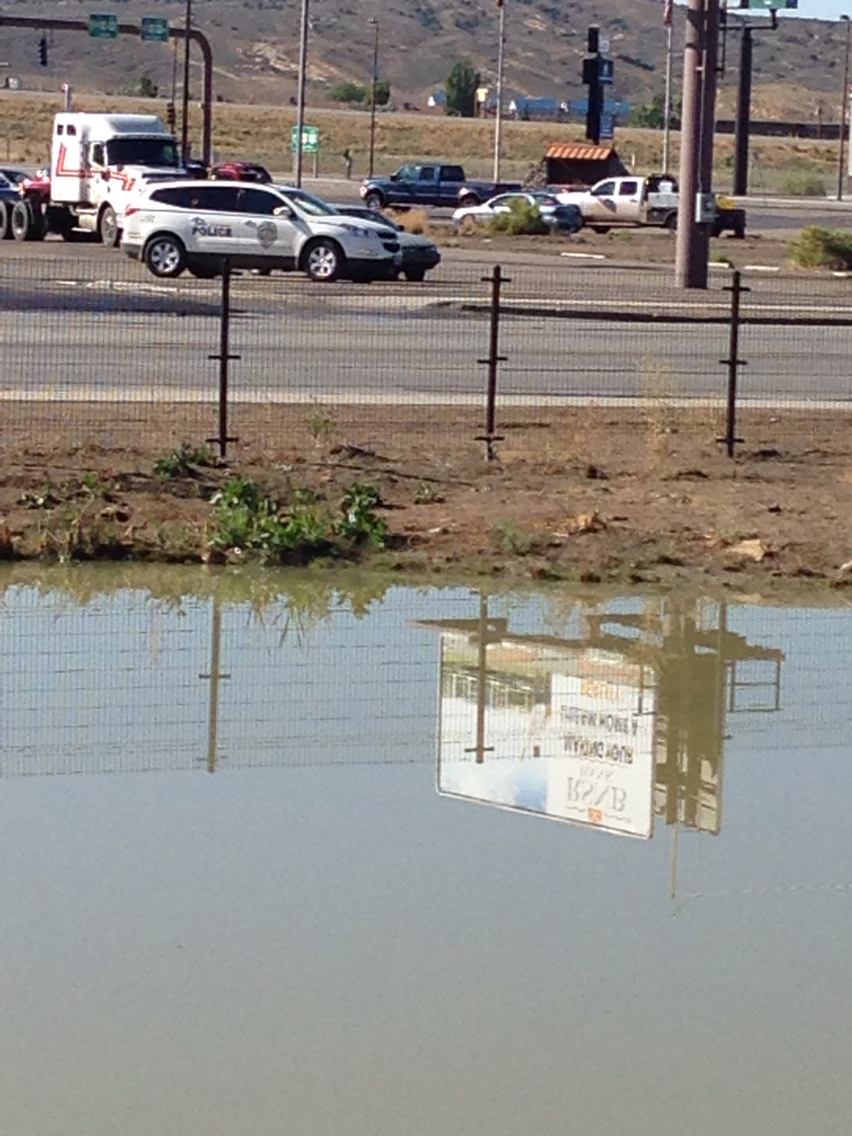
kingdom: Animalia
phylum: Chordata
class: Mammalia
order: Rodentia
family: Cricetidae
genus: Ondatra
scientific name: Ondatra zibethicus
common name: Muskrat
